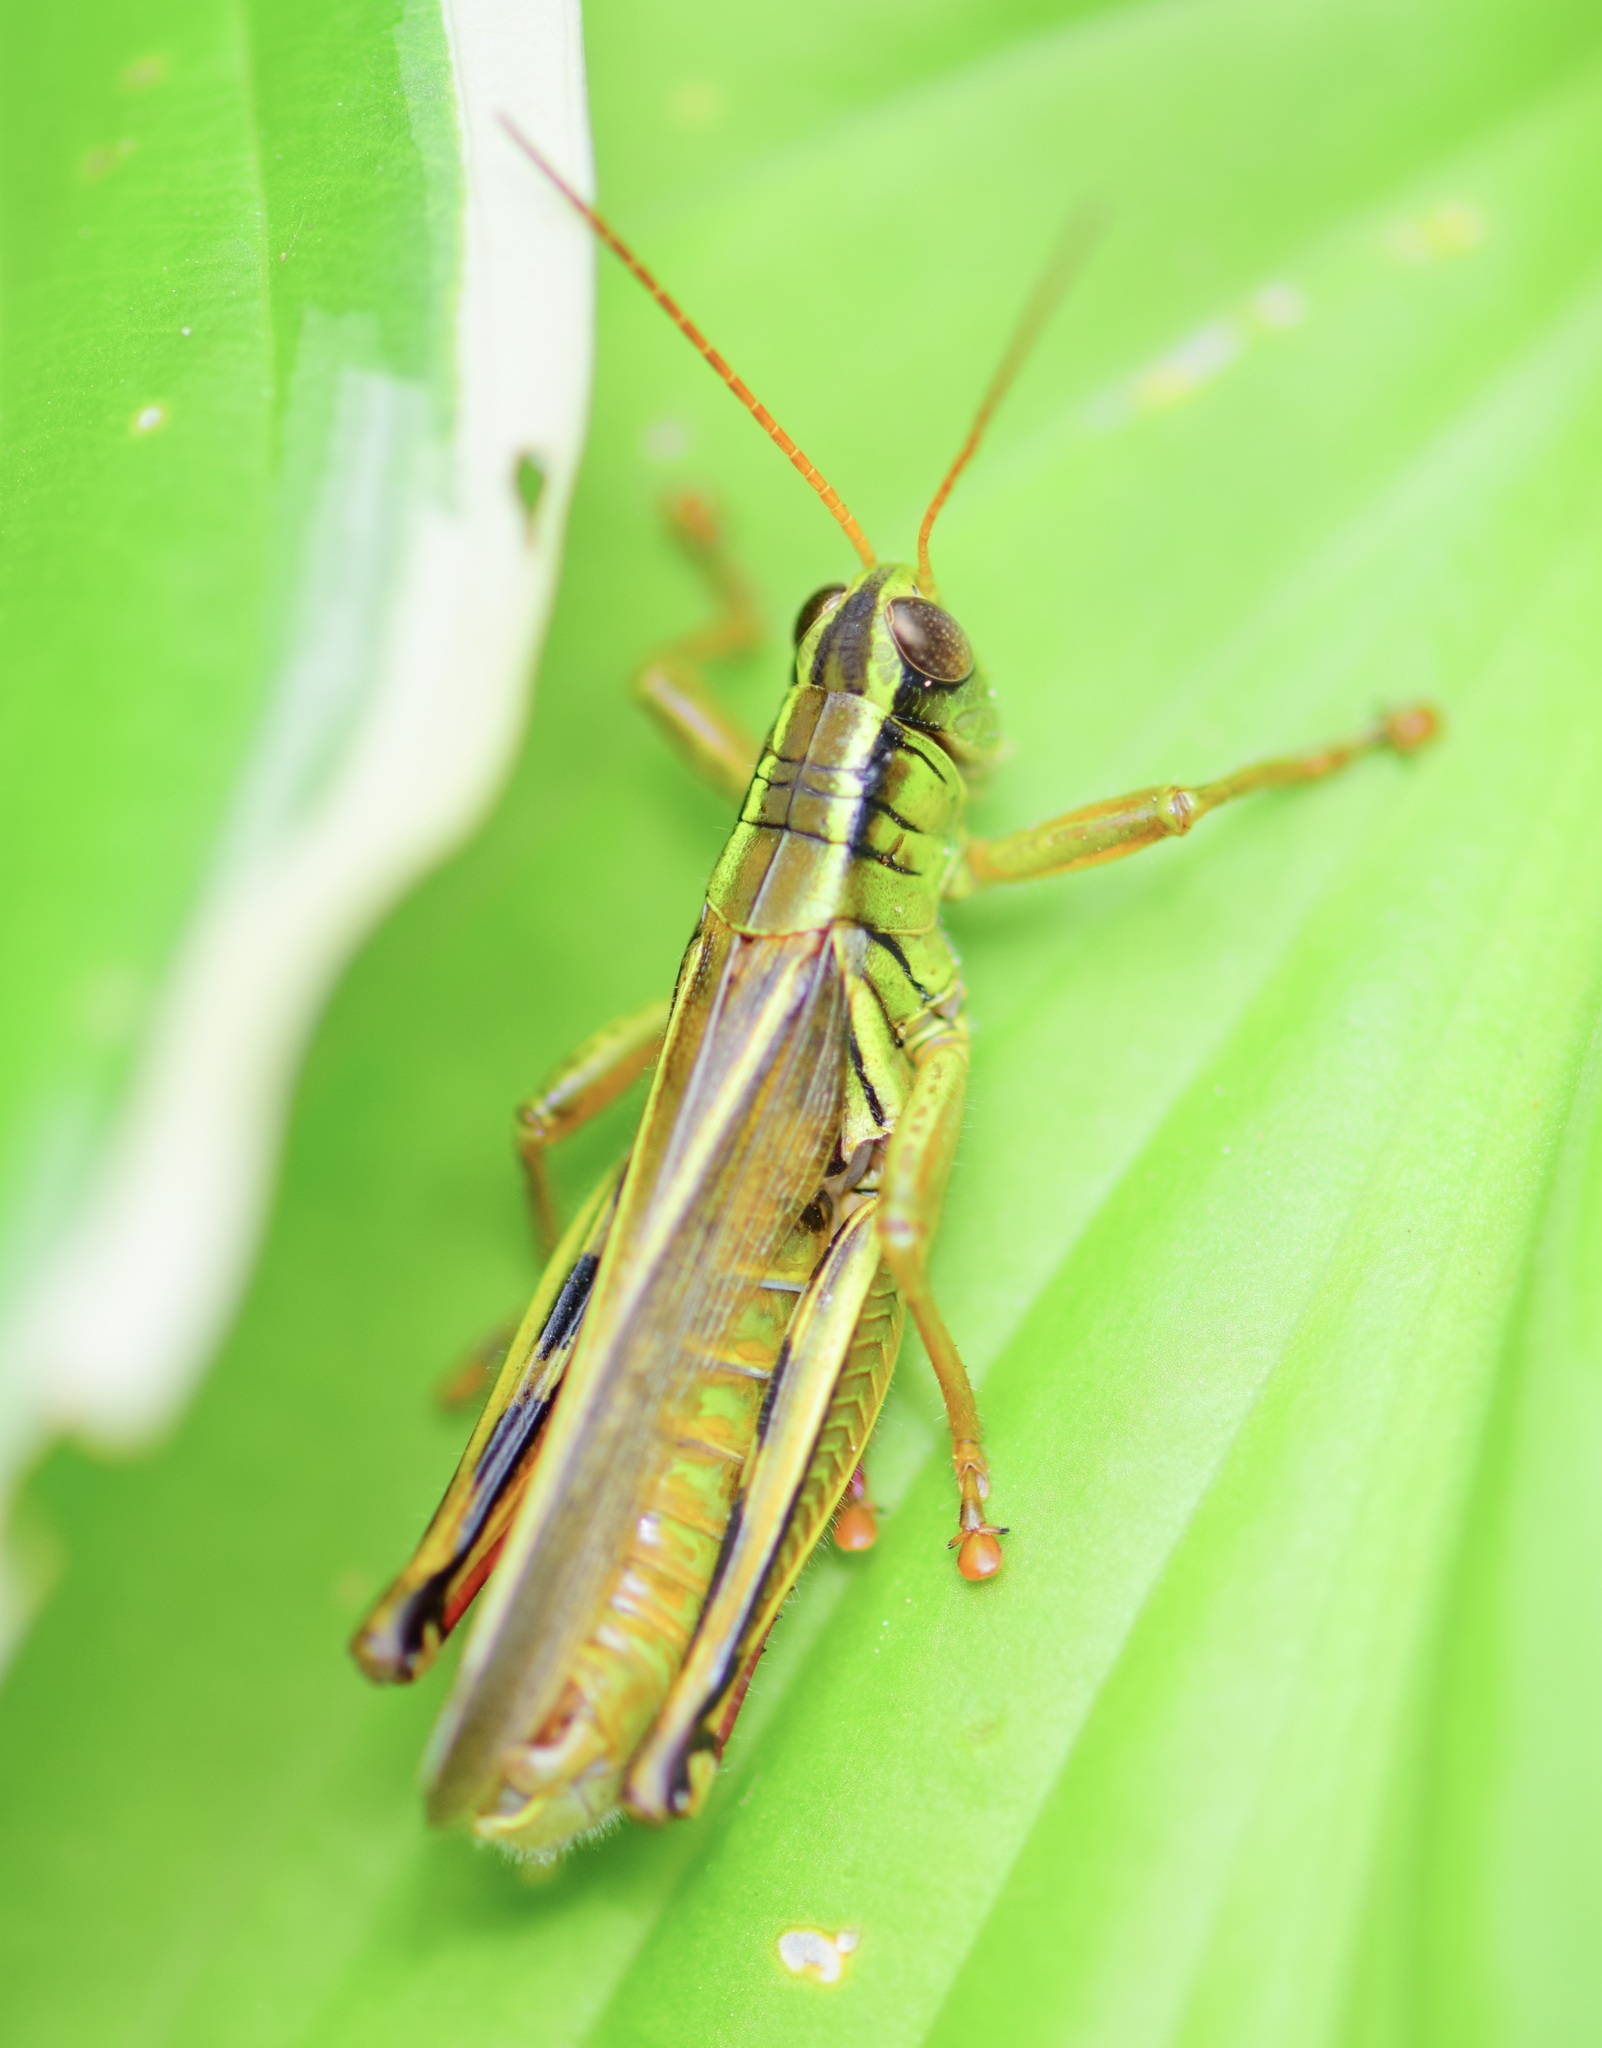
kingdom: Animalia
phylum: Arthropoda
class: Insecta
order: Orthoptera
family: Acrididae
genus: Melanoplus
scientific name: Melanoplus bivittatus
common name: Two-striped grasshopper
